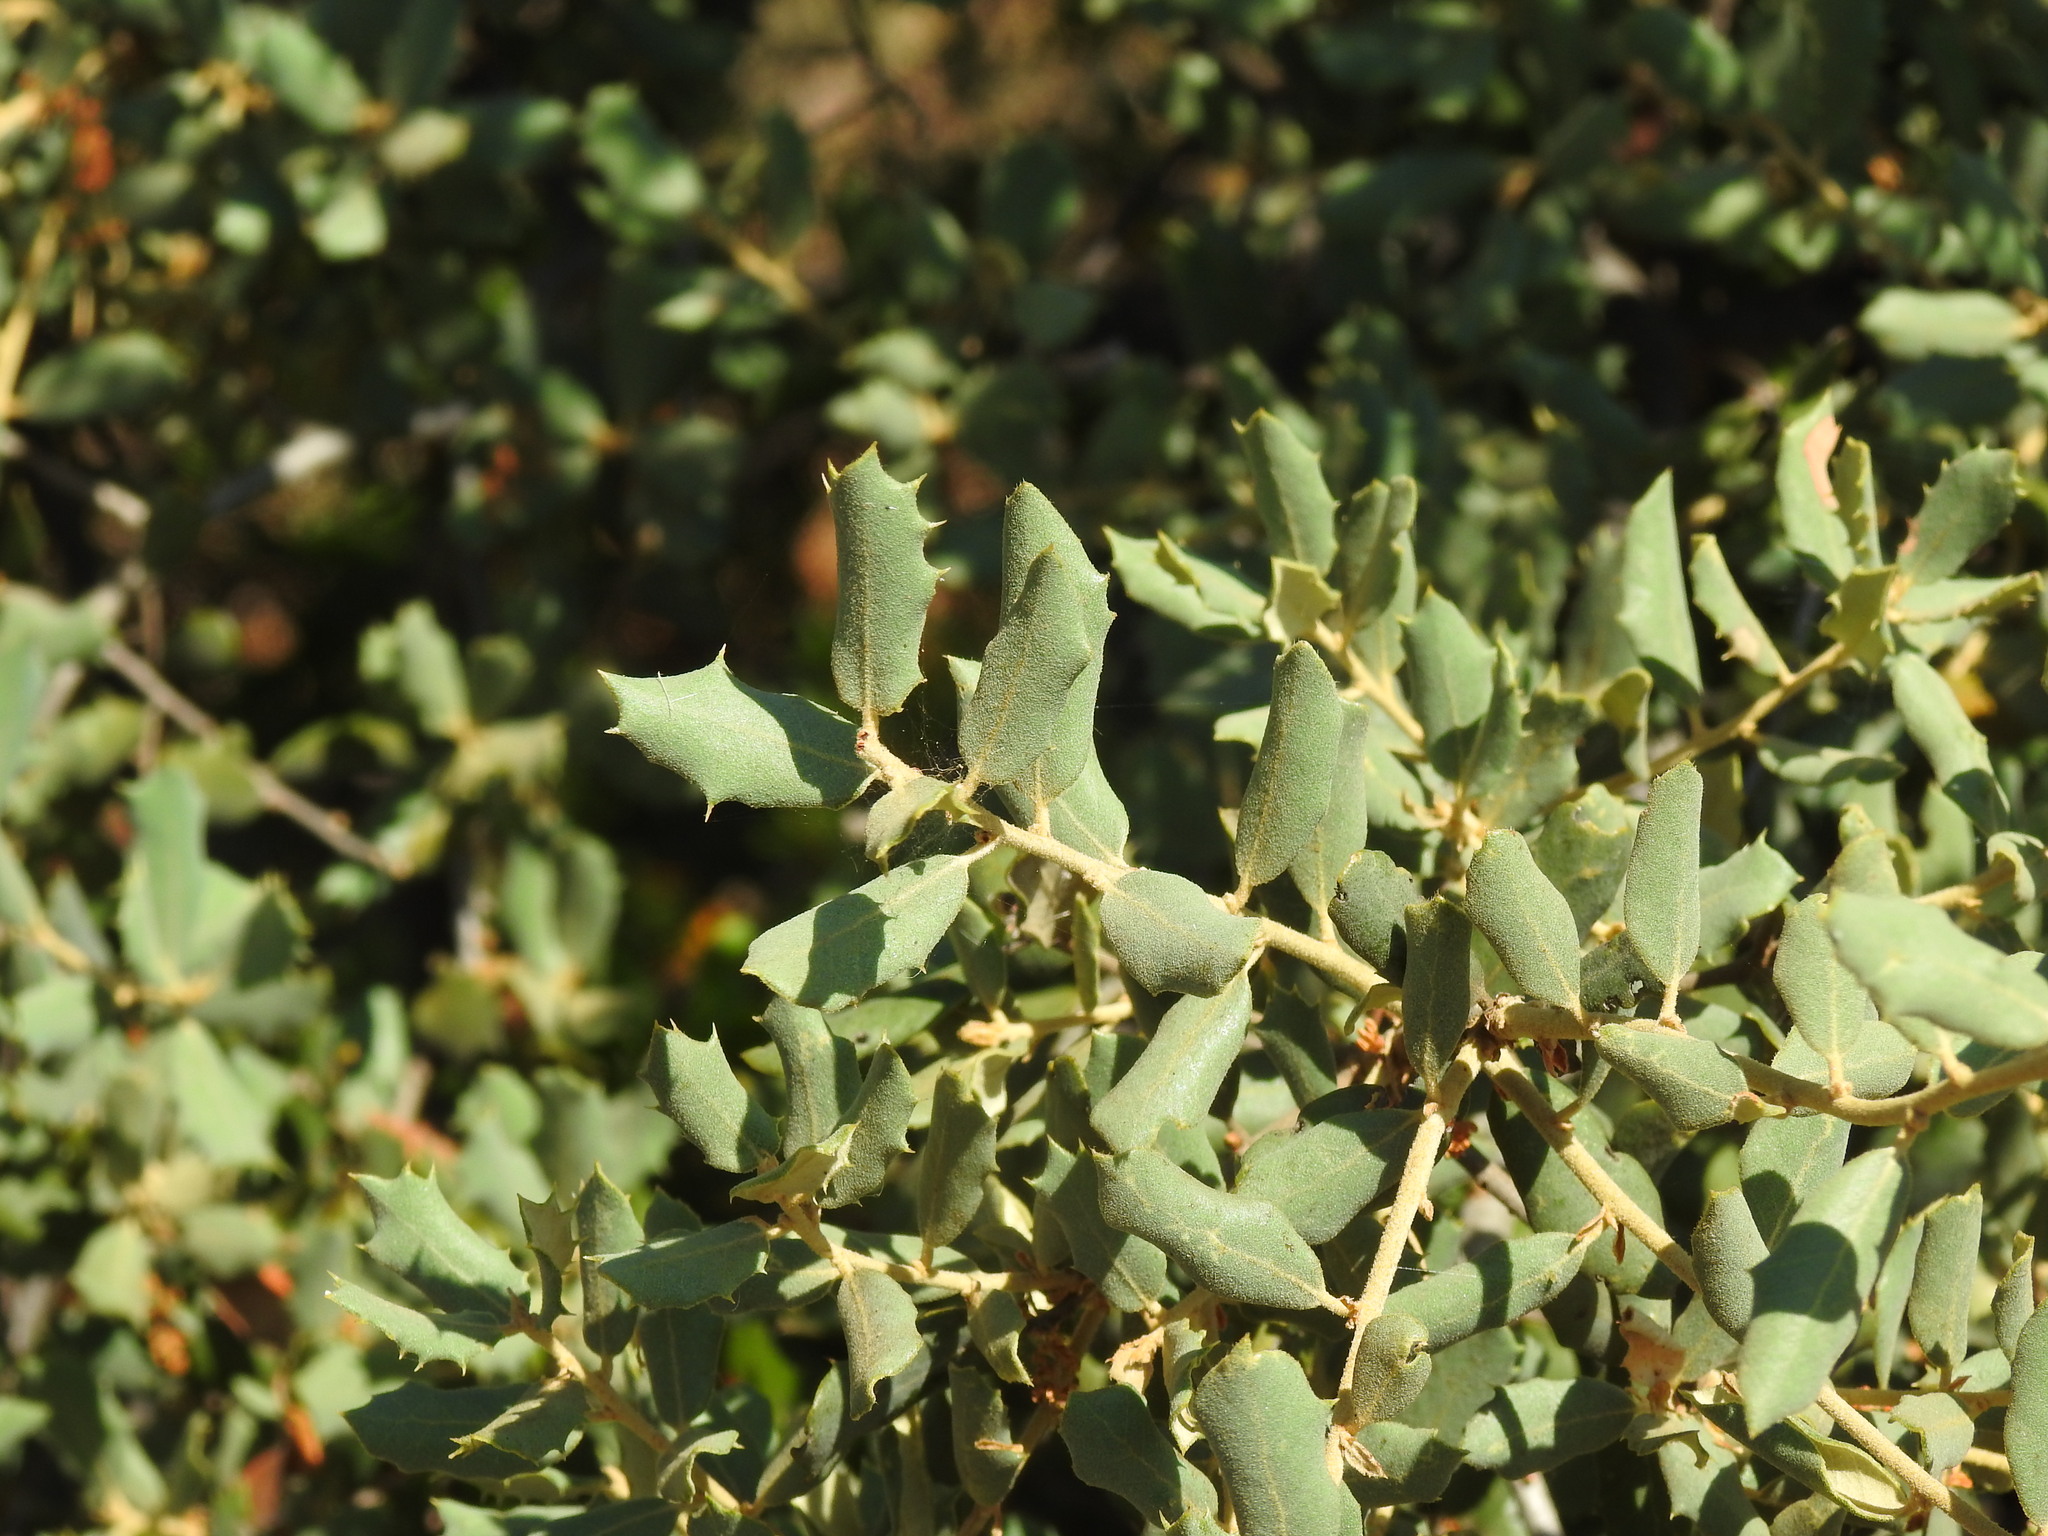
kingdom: Plantae
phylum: Tracheophyta
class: Magnoliopsida
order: Fagales
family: Fagaceae
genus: Quercus
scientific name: Quercus rotundifolia
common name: Holm oak
